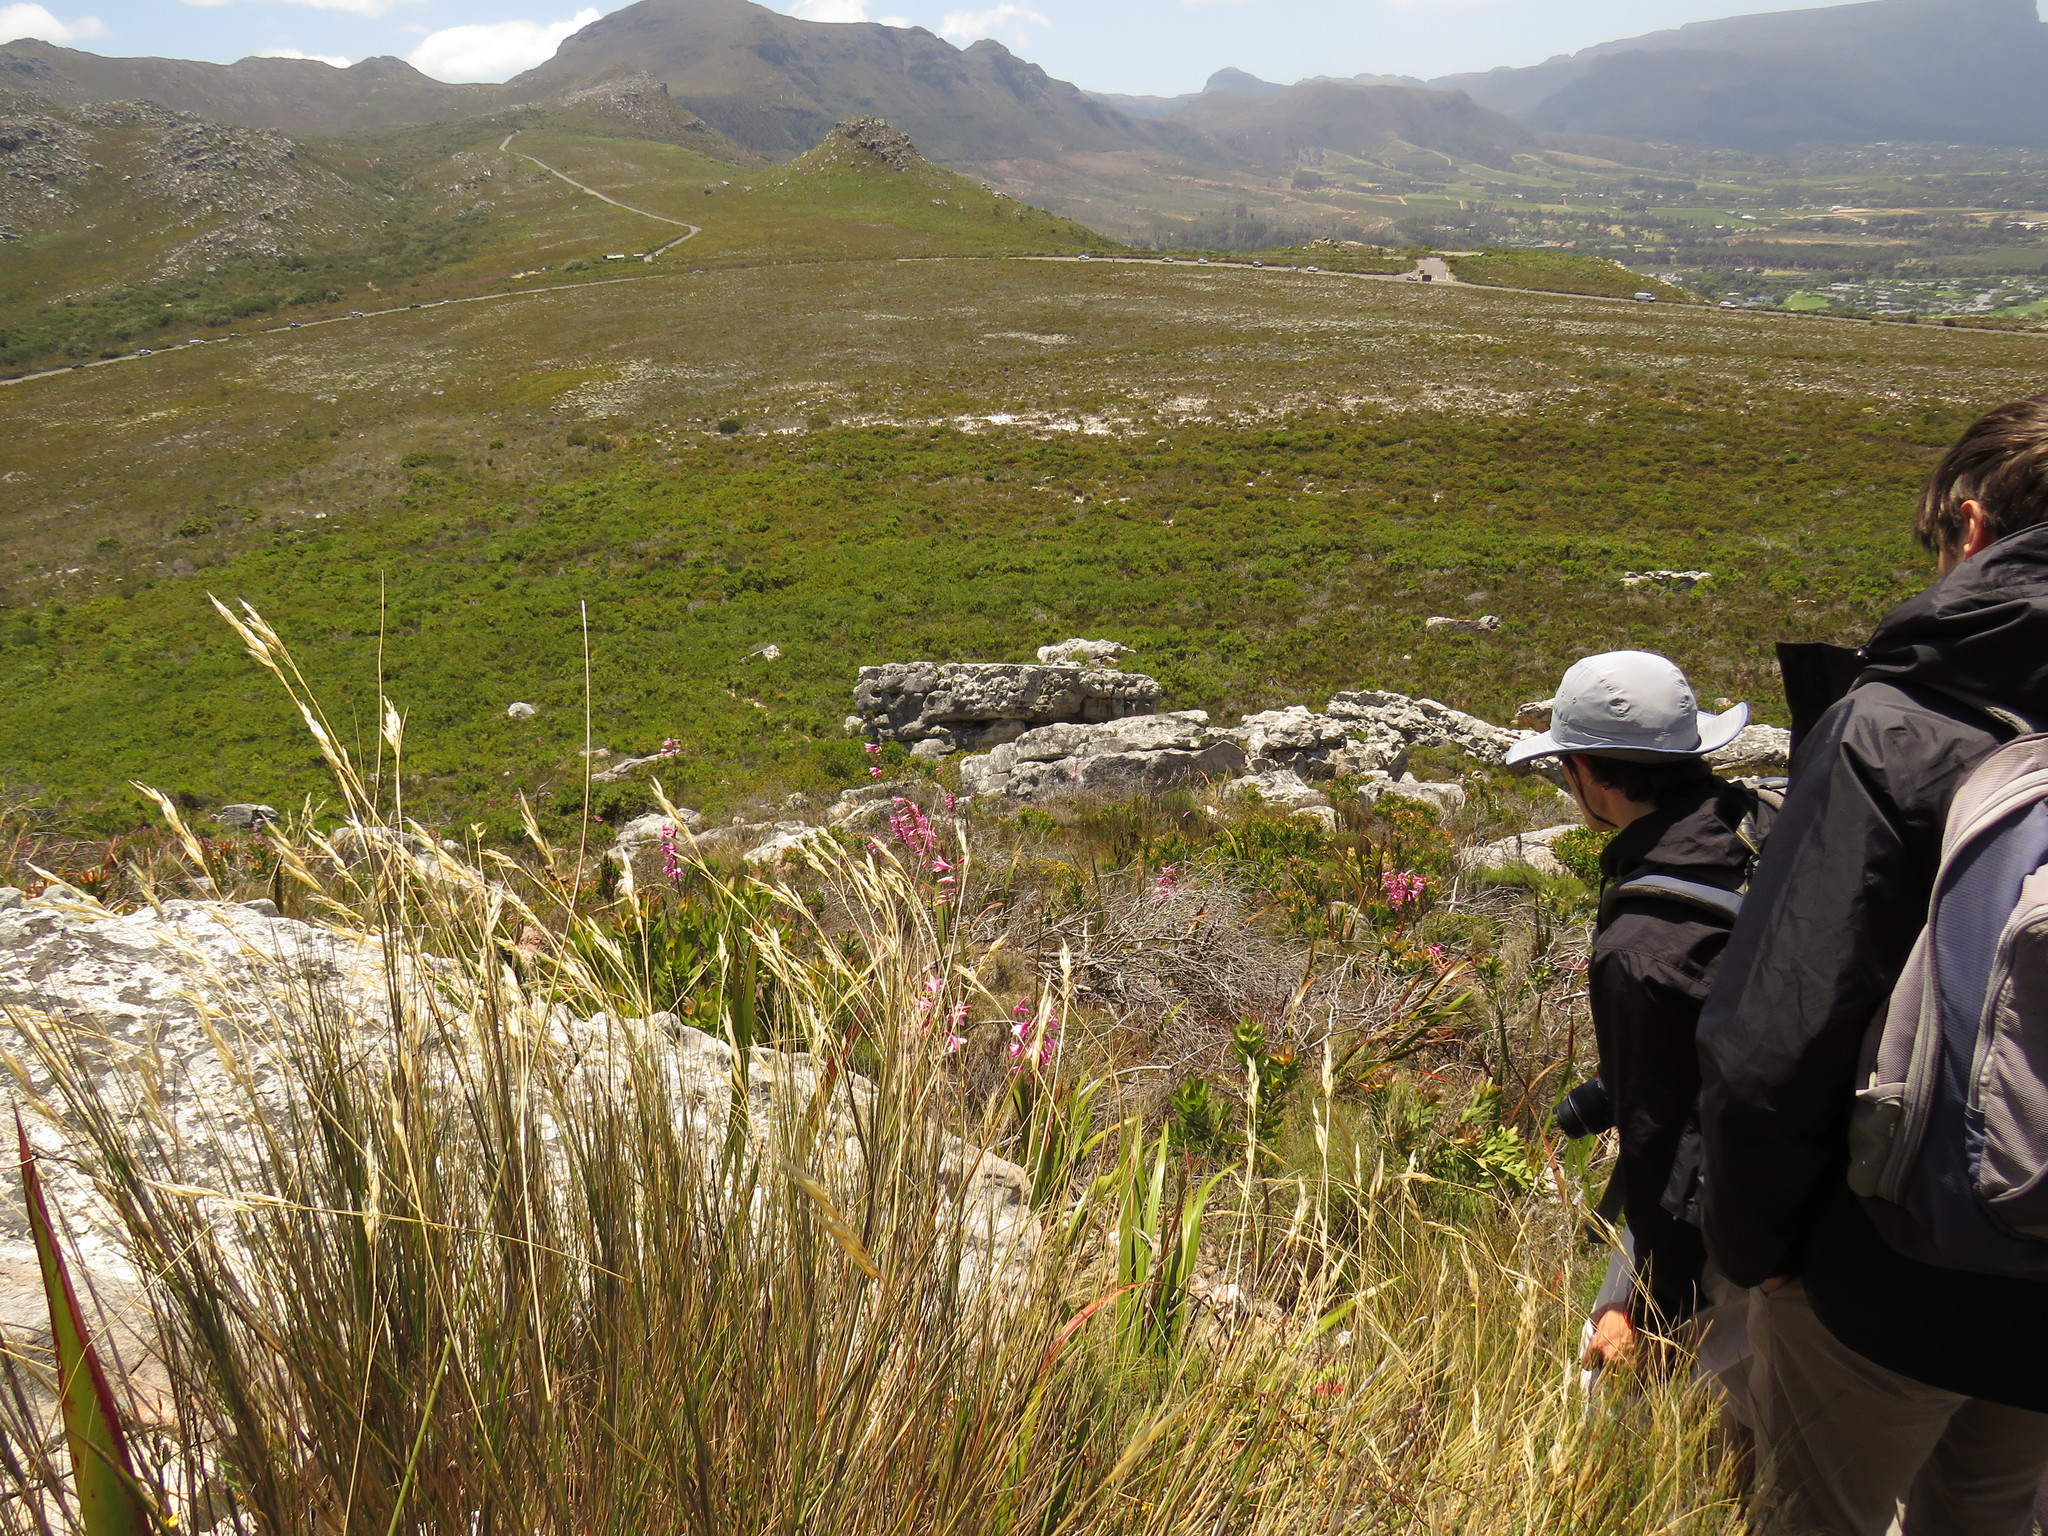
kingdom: Plantae
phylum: Tracheophyta
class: Liliopsida
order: Asparagales
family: Iridaceae
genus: Watsonia
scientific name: Watsonia borbonica
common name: Bugle-lily
